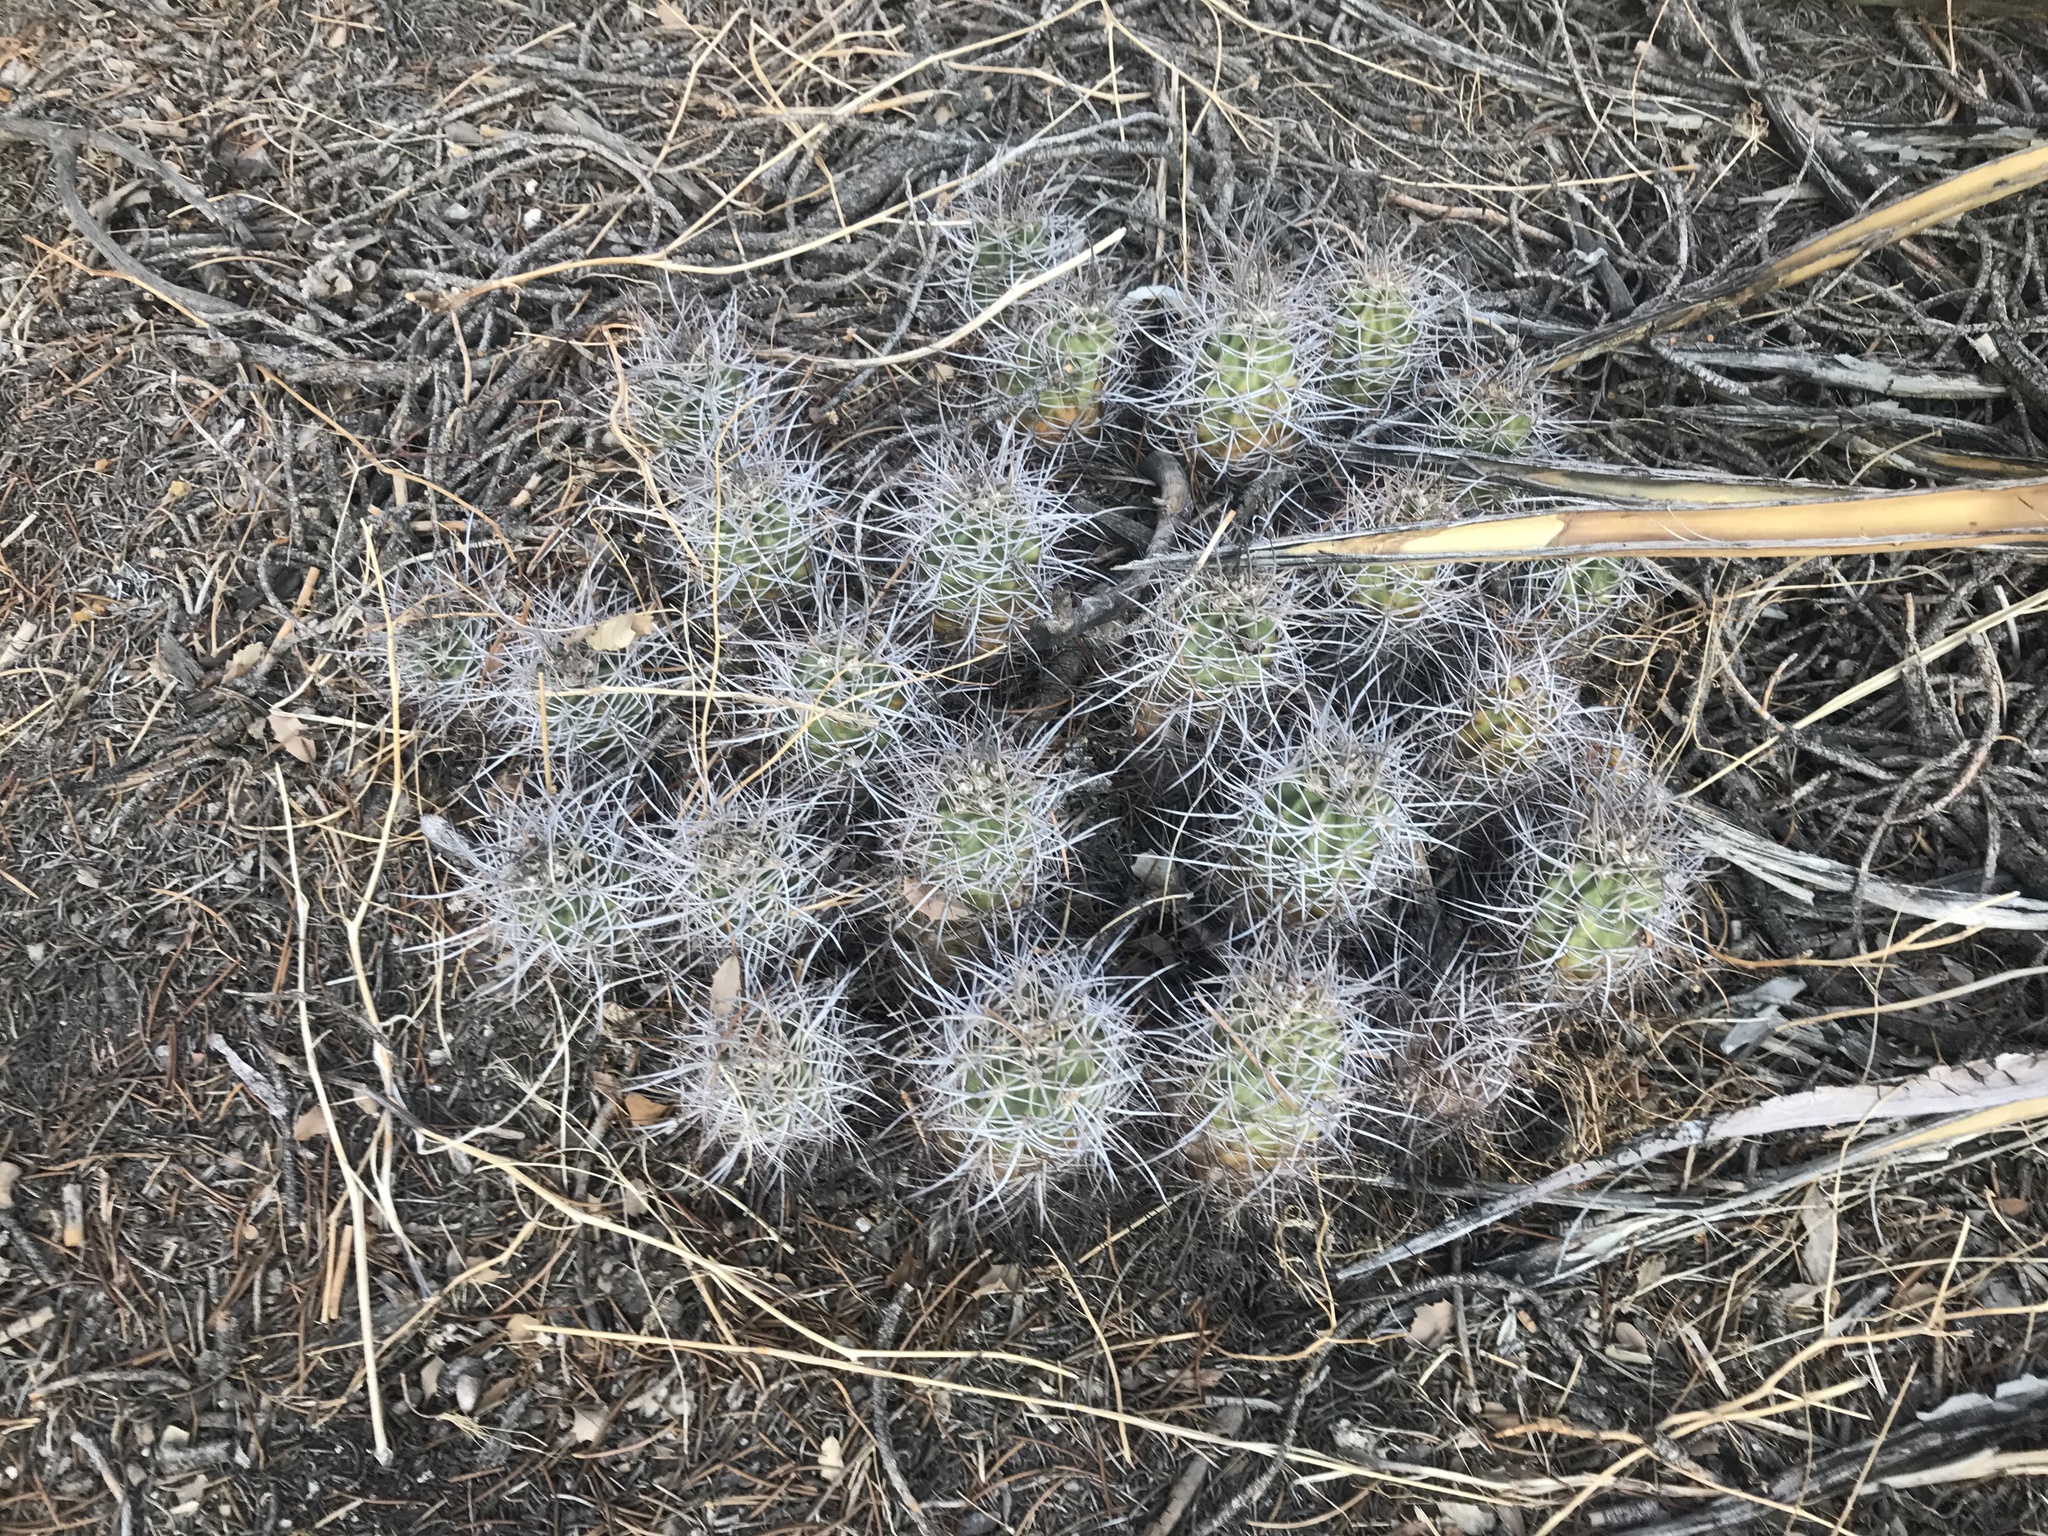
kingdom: Plantae
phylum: Tracheophyta
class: Magnoliopsida
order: Caryophyllales
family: Cactaceae
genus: Echinocereus
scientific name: Echinocereus triglochidiatus
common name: Claretcup hedgehog
